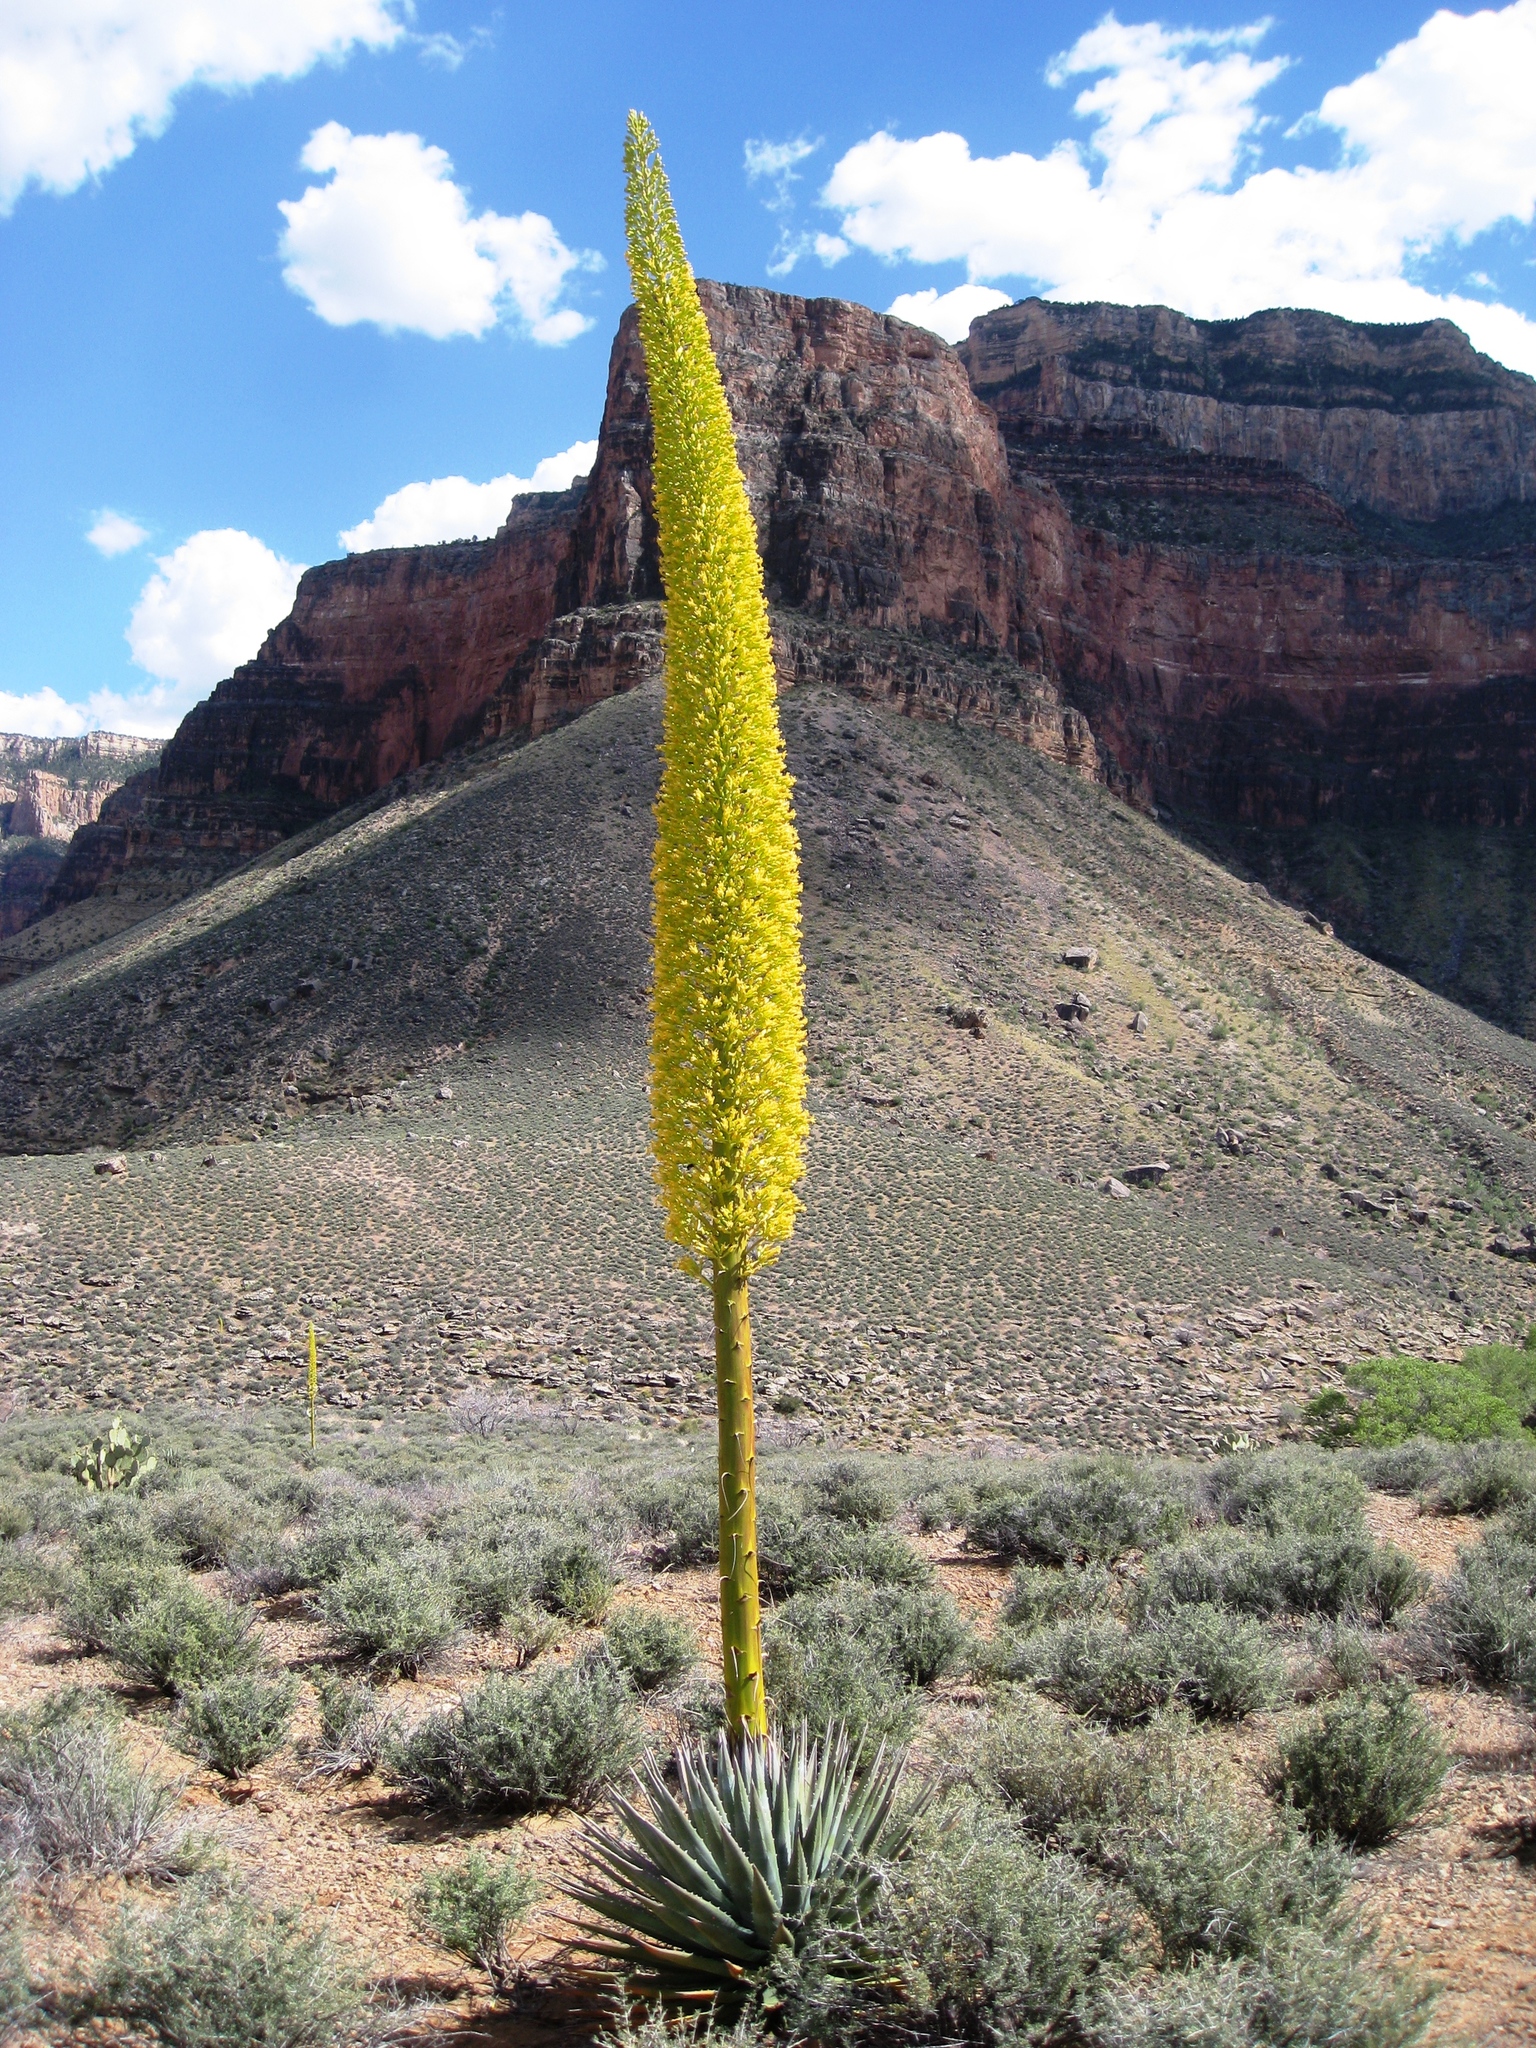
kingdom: Plantae
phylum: Tracheophyta
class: Liliopsida
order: Asparagales
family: Asparagaceae
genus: Agave
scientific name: Agave utahensis
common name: Utah agave
